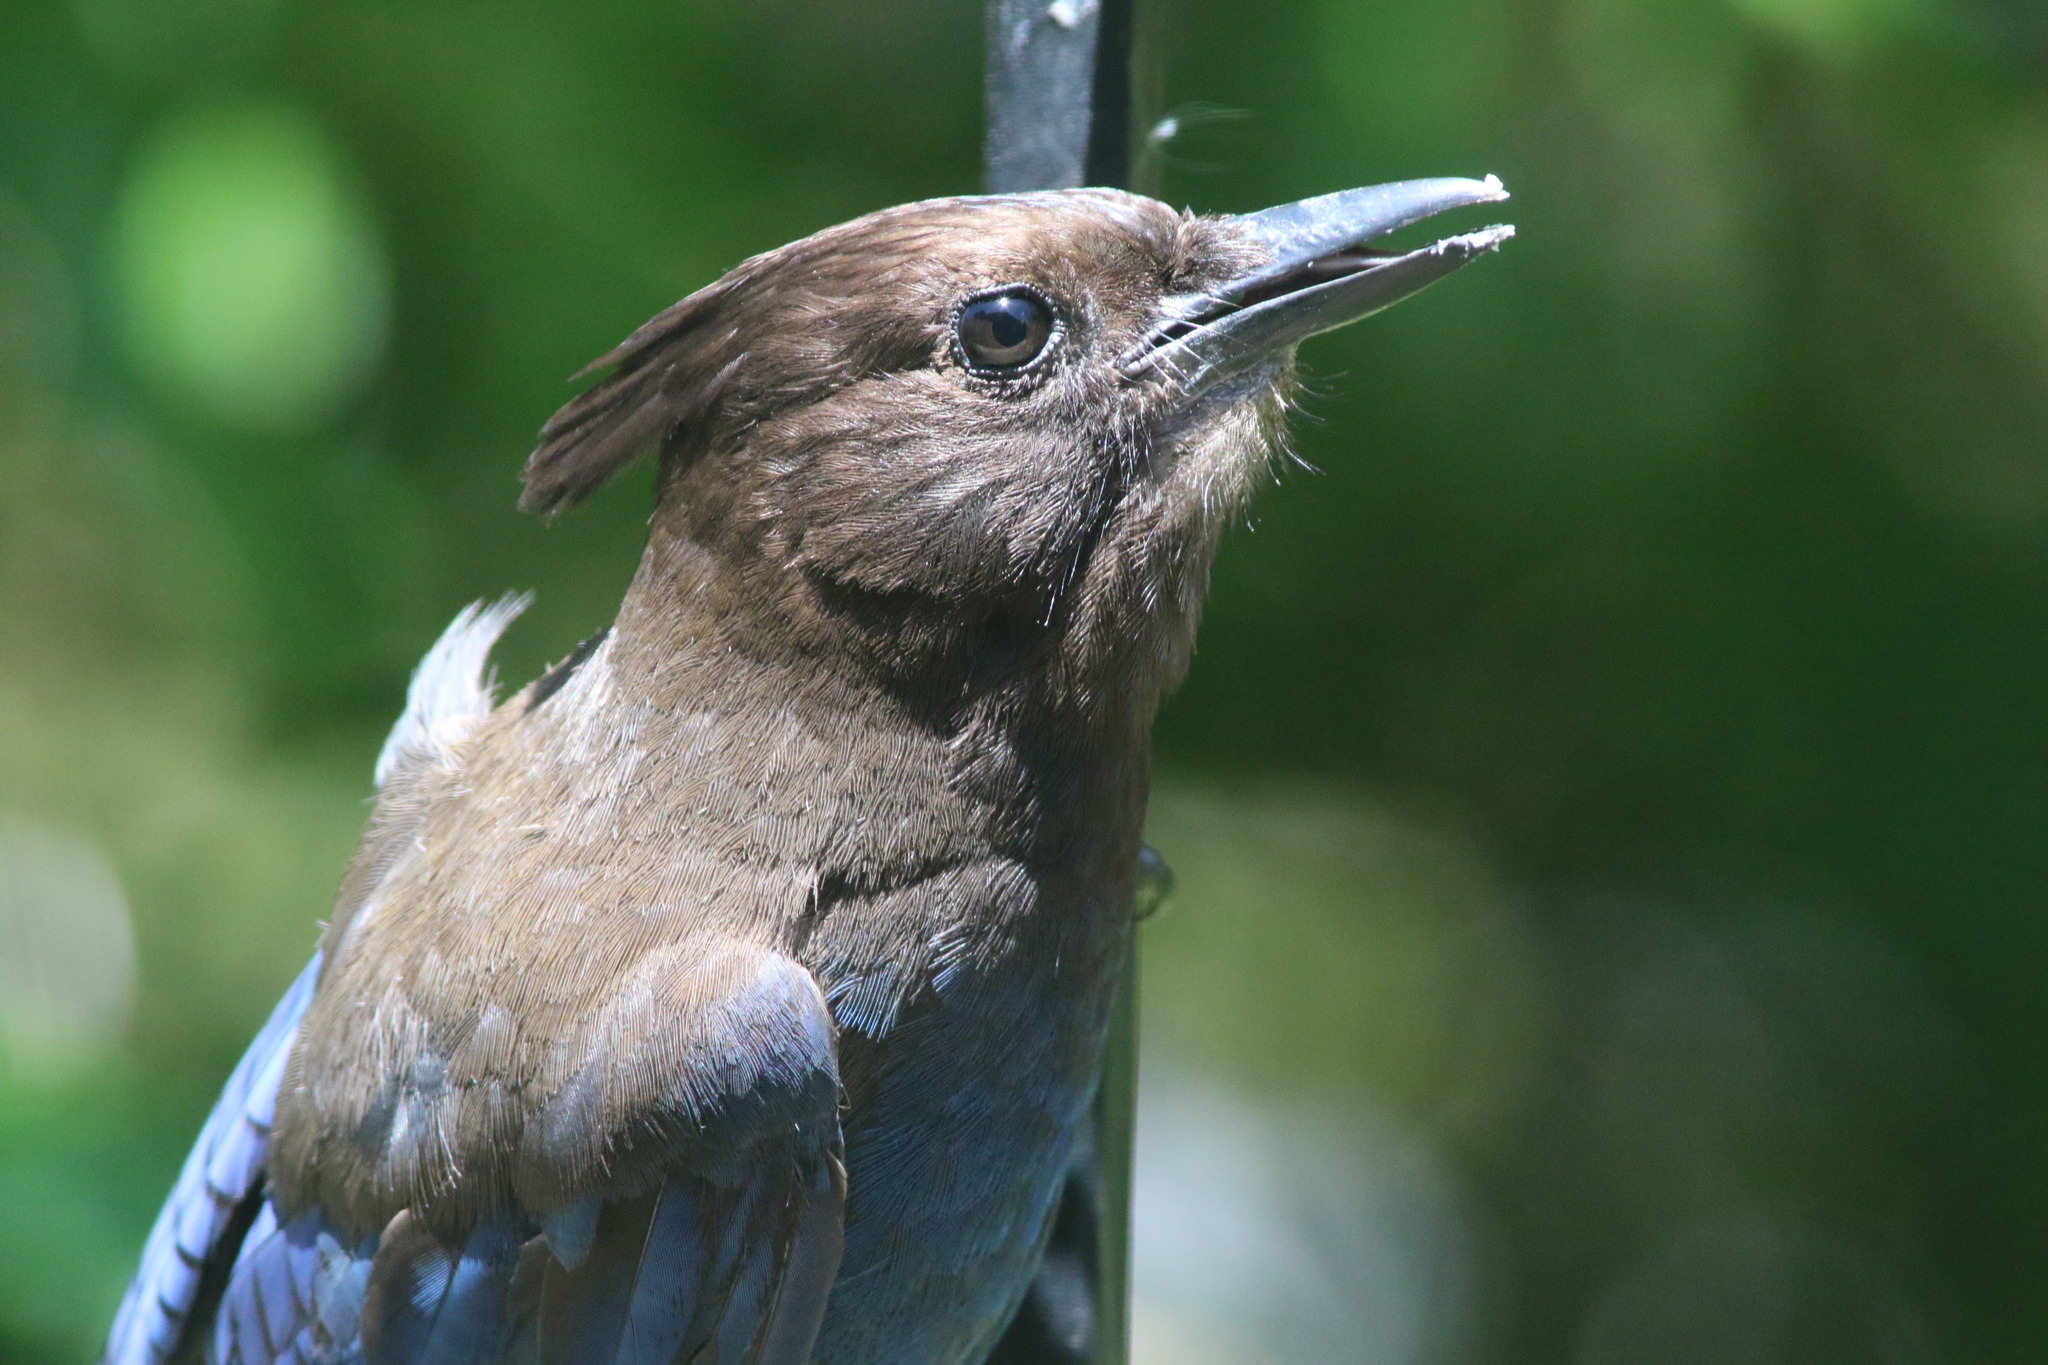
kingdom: Animalia
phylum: Chordata
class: Aves
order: Passeriformes
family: Corvidae
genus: Cyanocitta
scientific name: Cyanocitta stelleri
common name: Steller's jay
